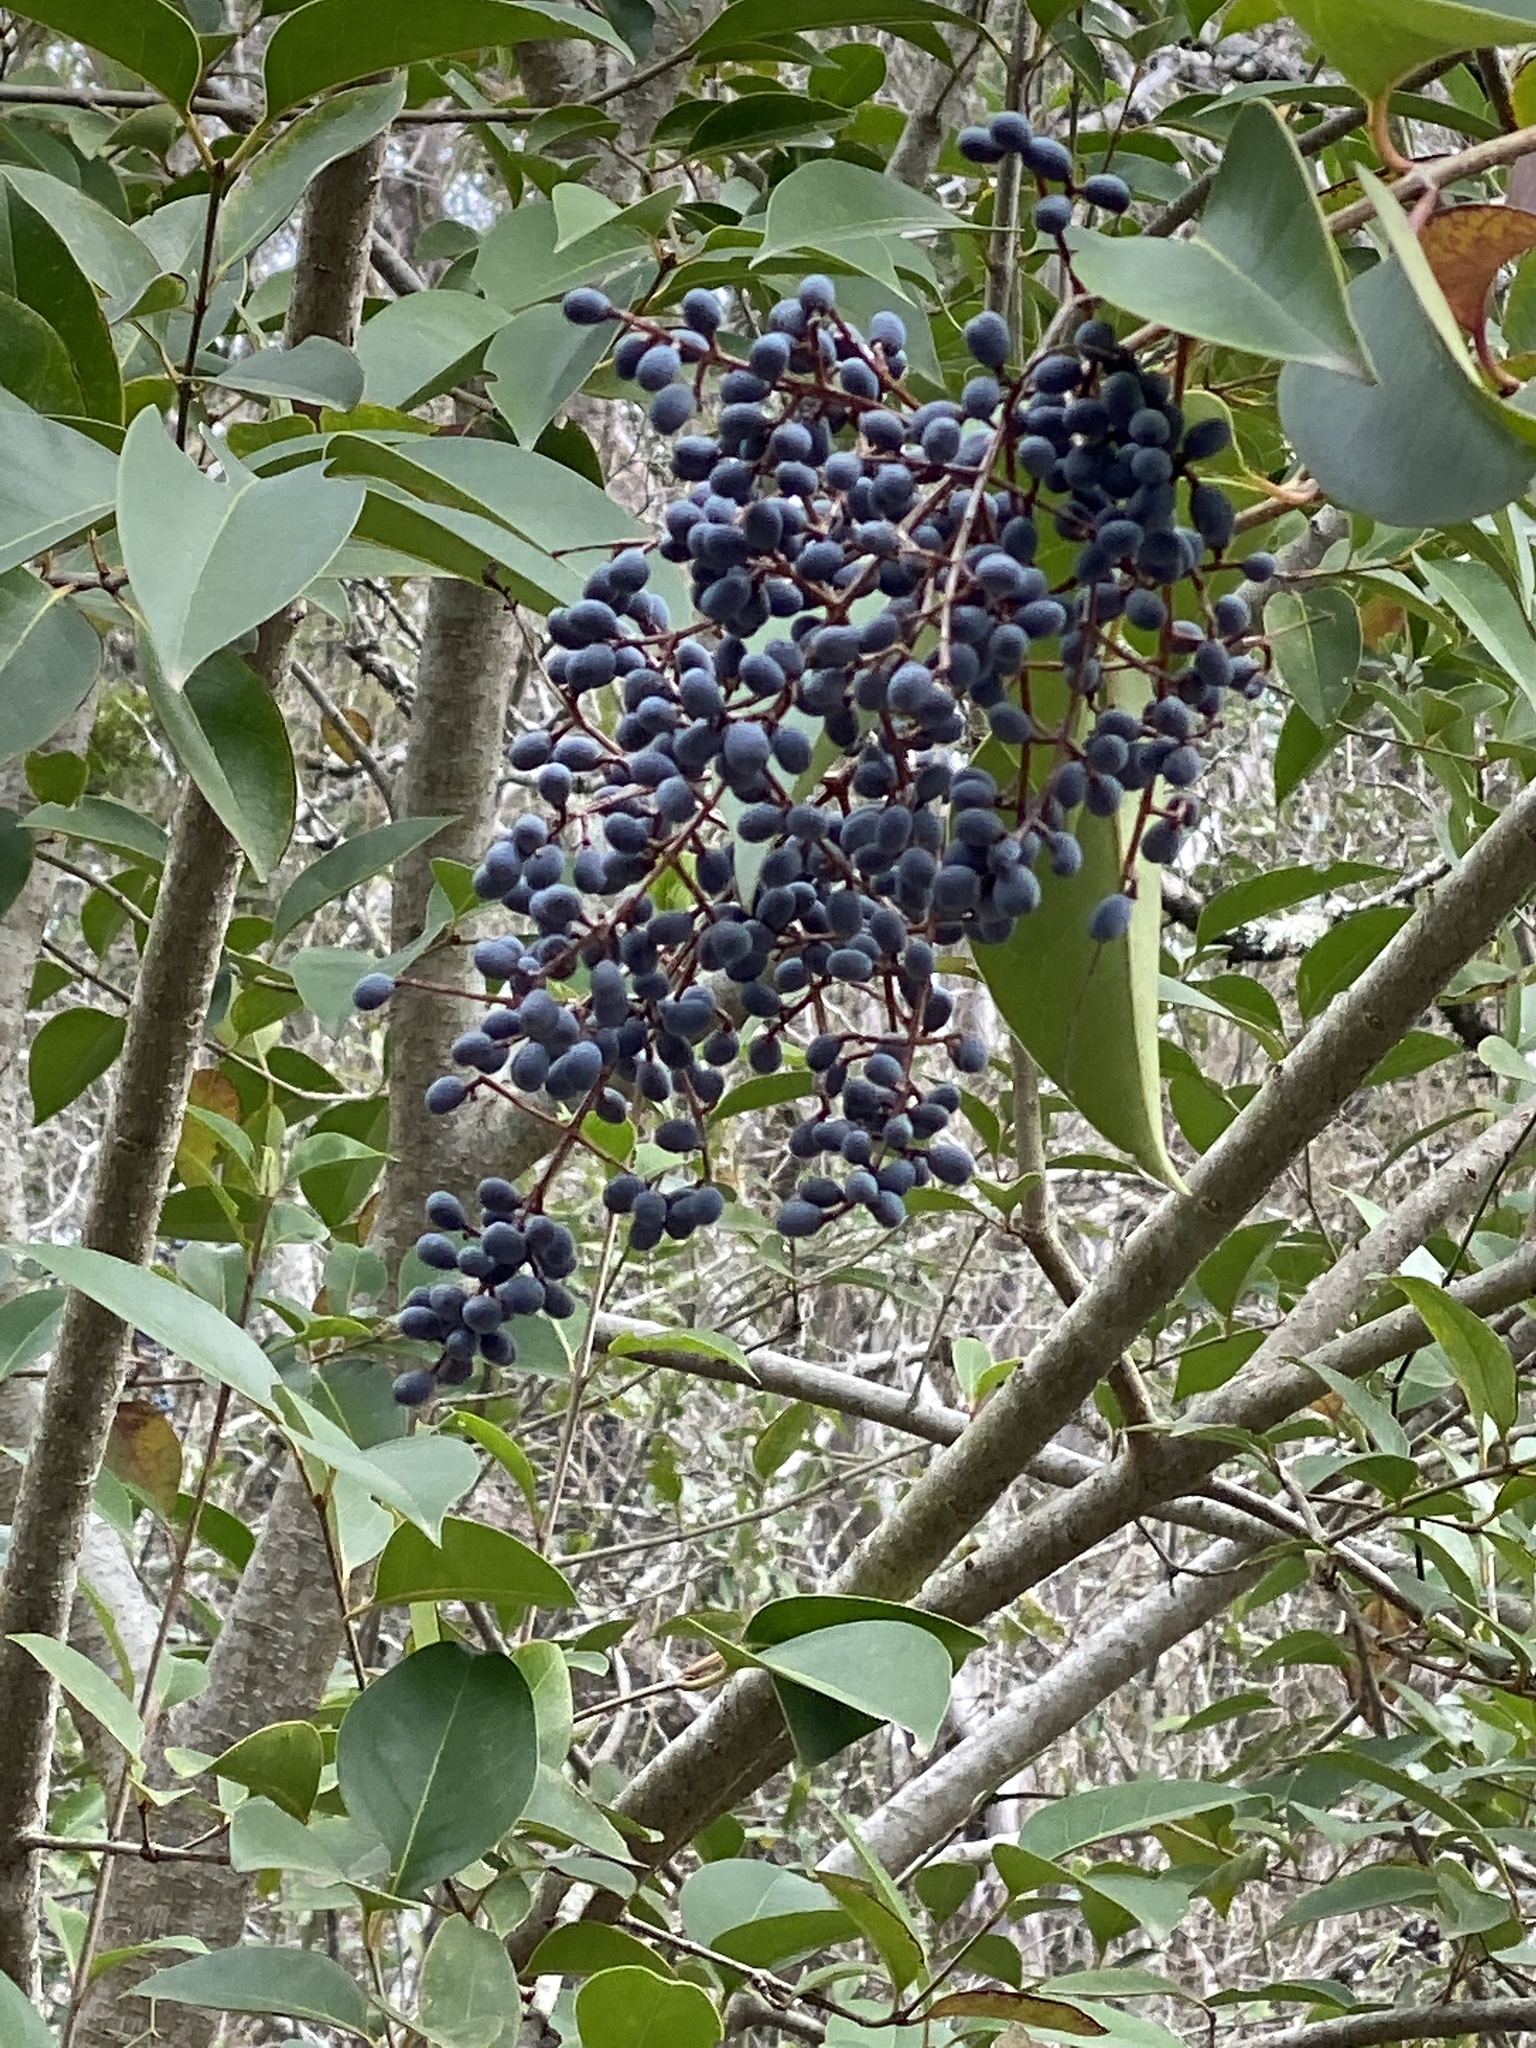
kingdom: Plantae
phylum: Tracheophyta
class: Magnoliopsida
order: Lamiales
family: Oleaceae
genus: Ligustrum
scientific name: Ligustrum lucidum
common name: Glossy privet
